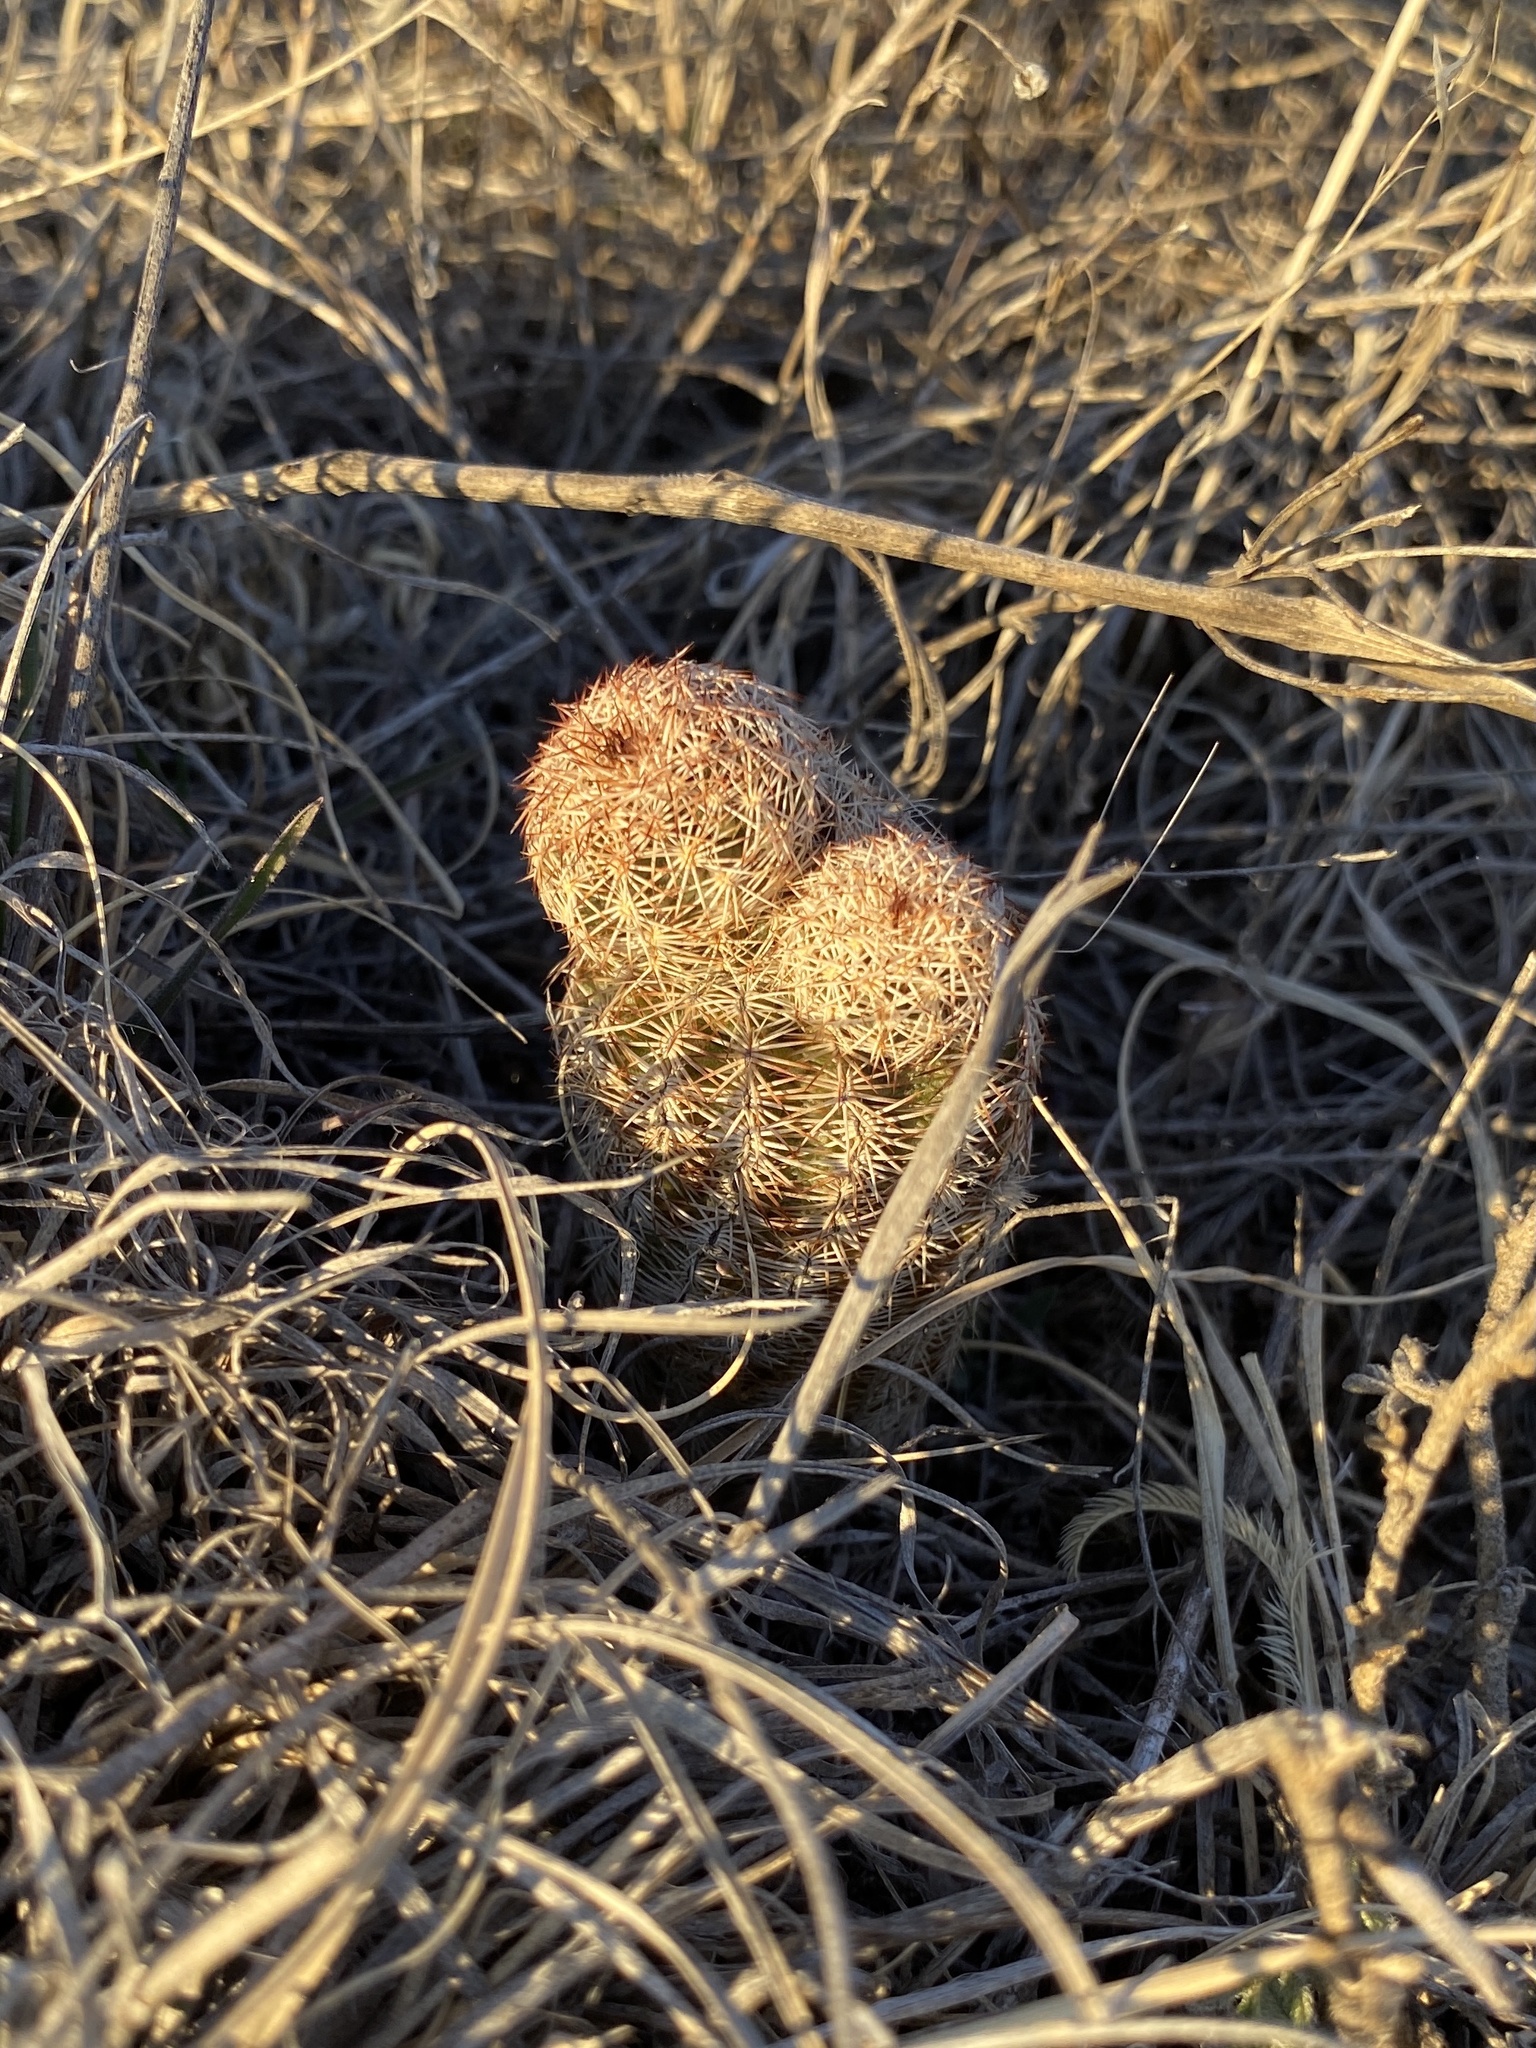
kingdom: Plantae
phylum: Tracheophyta
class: Magnoliopsida
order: Caryophyllales
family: Cactaceae
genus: Echinocereus
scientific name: Echinocereus reichenbachii
